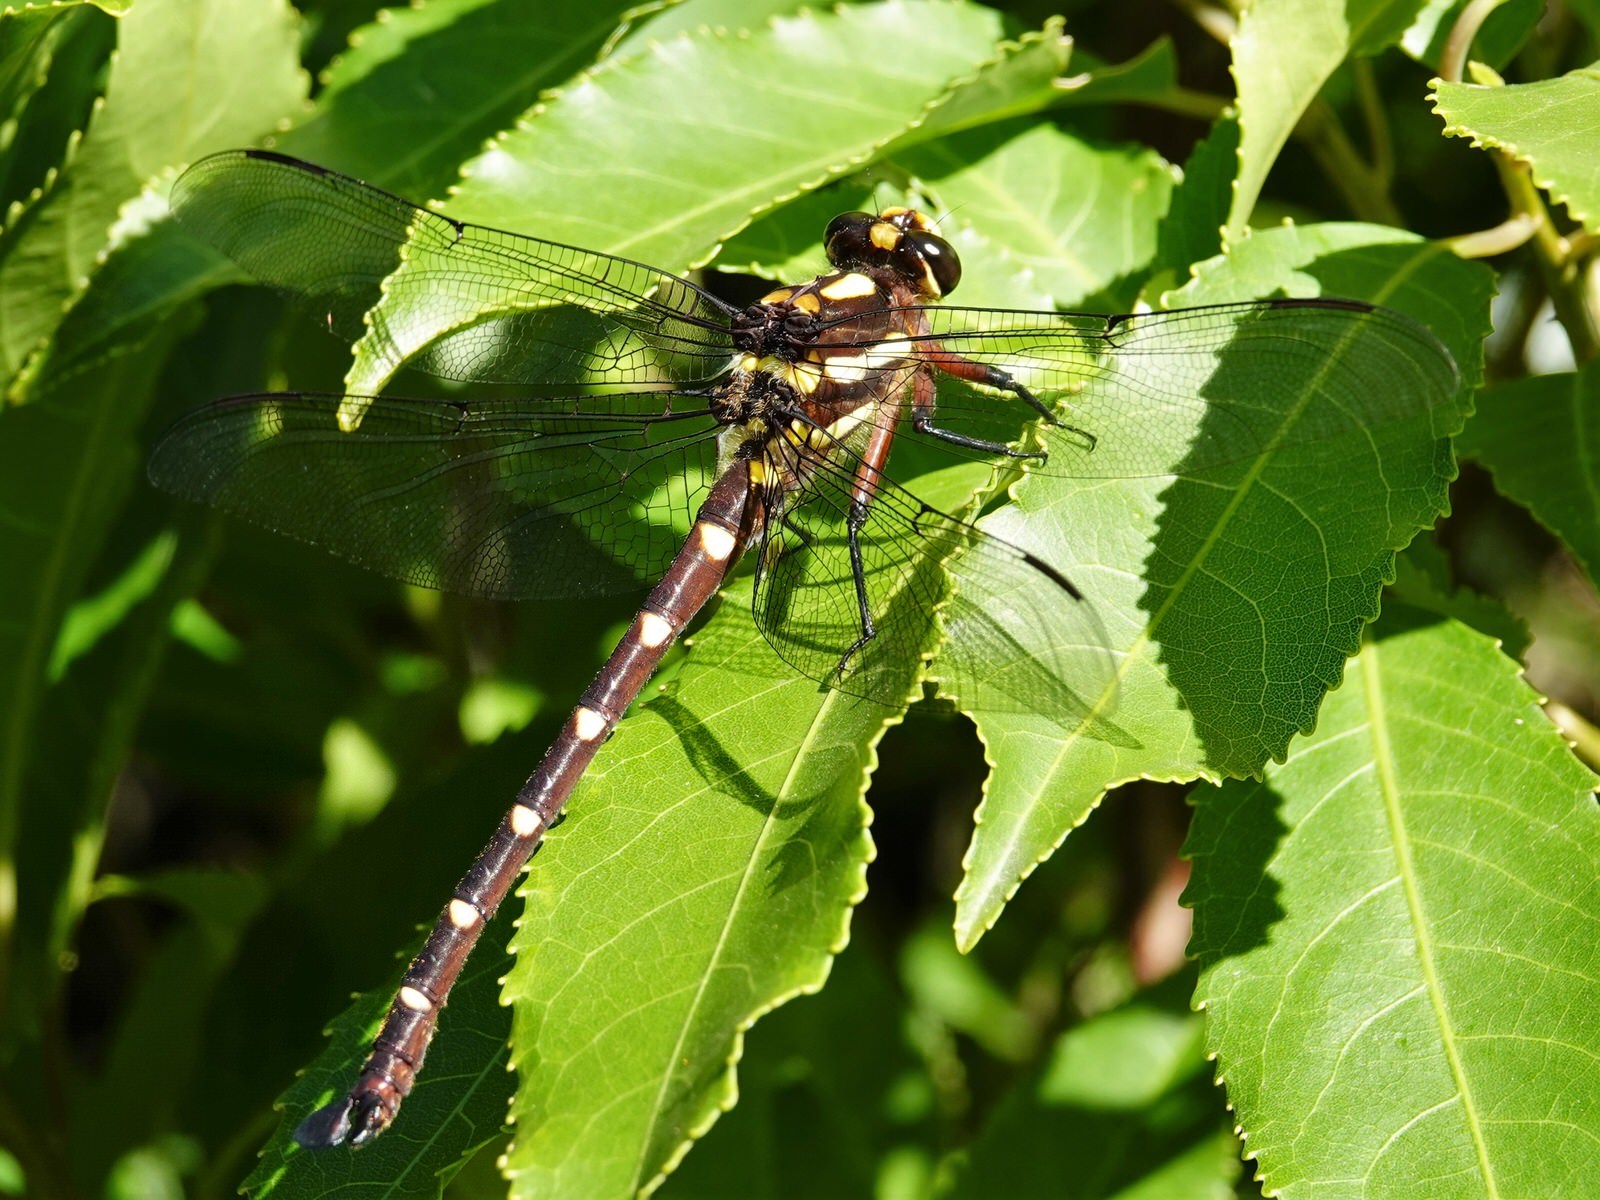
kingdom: Animalia
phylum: Arthropoda
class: Insecta
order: Odonata
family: Petaluridae
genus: Uropetala
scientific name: Uropetala carovei
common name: Bush giant dragonfly
